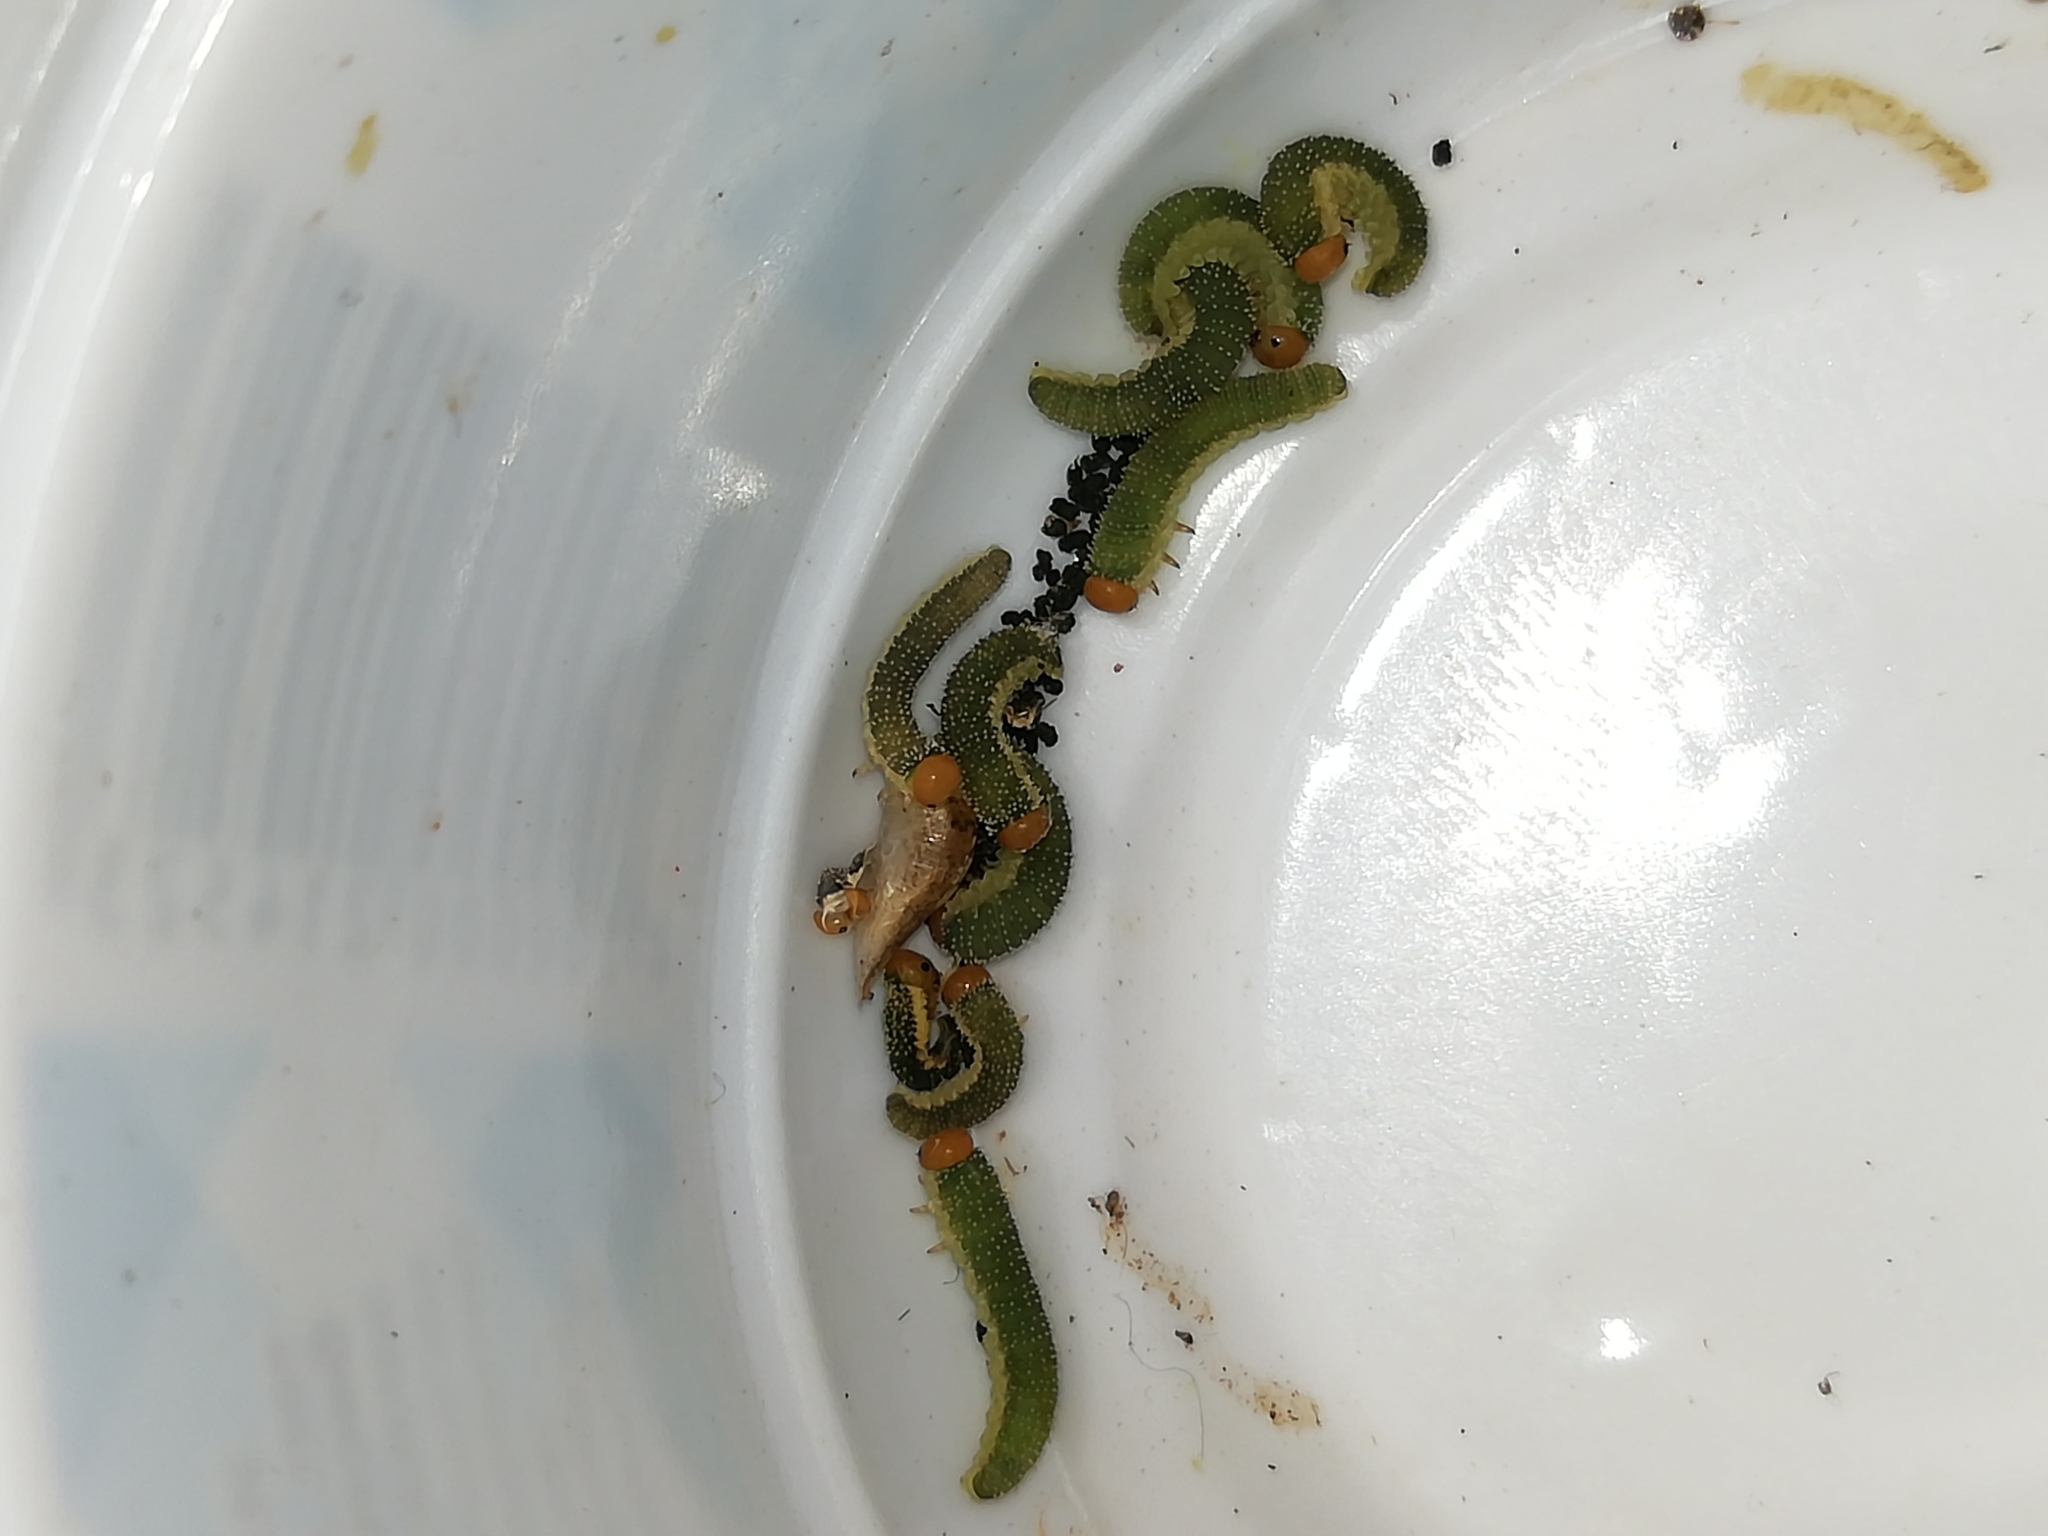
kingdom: Animalia
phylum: Arthropoda
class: Insecta
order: Hymenoptera
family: Argidae
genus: Arge
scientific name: Arge ochropus
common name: Argid sawfly
